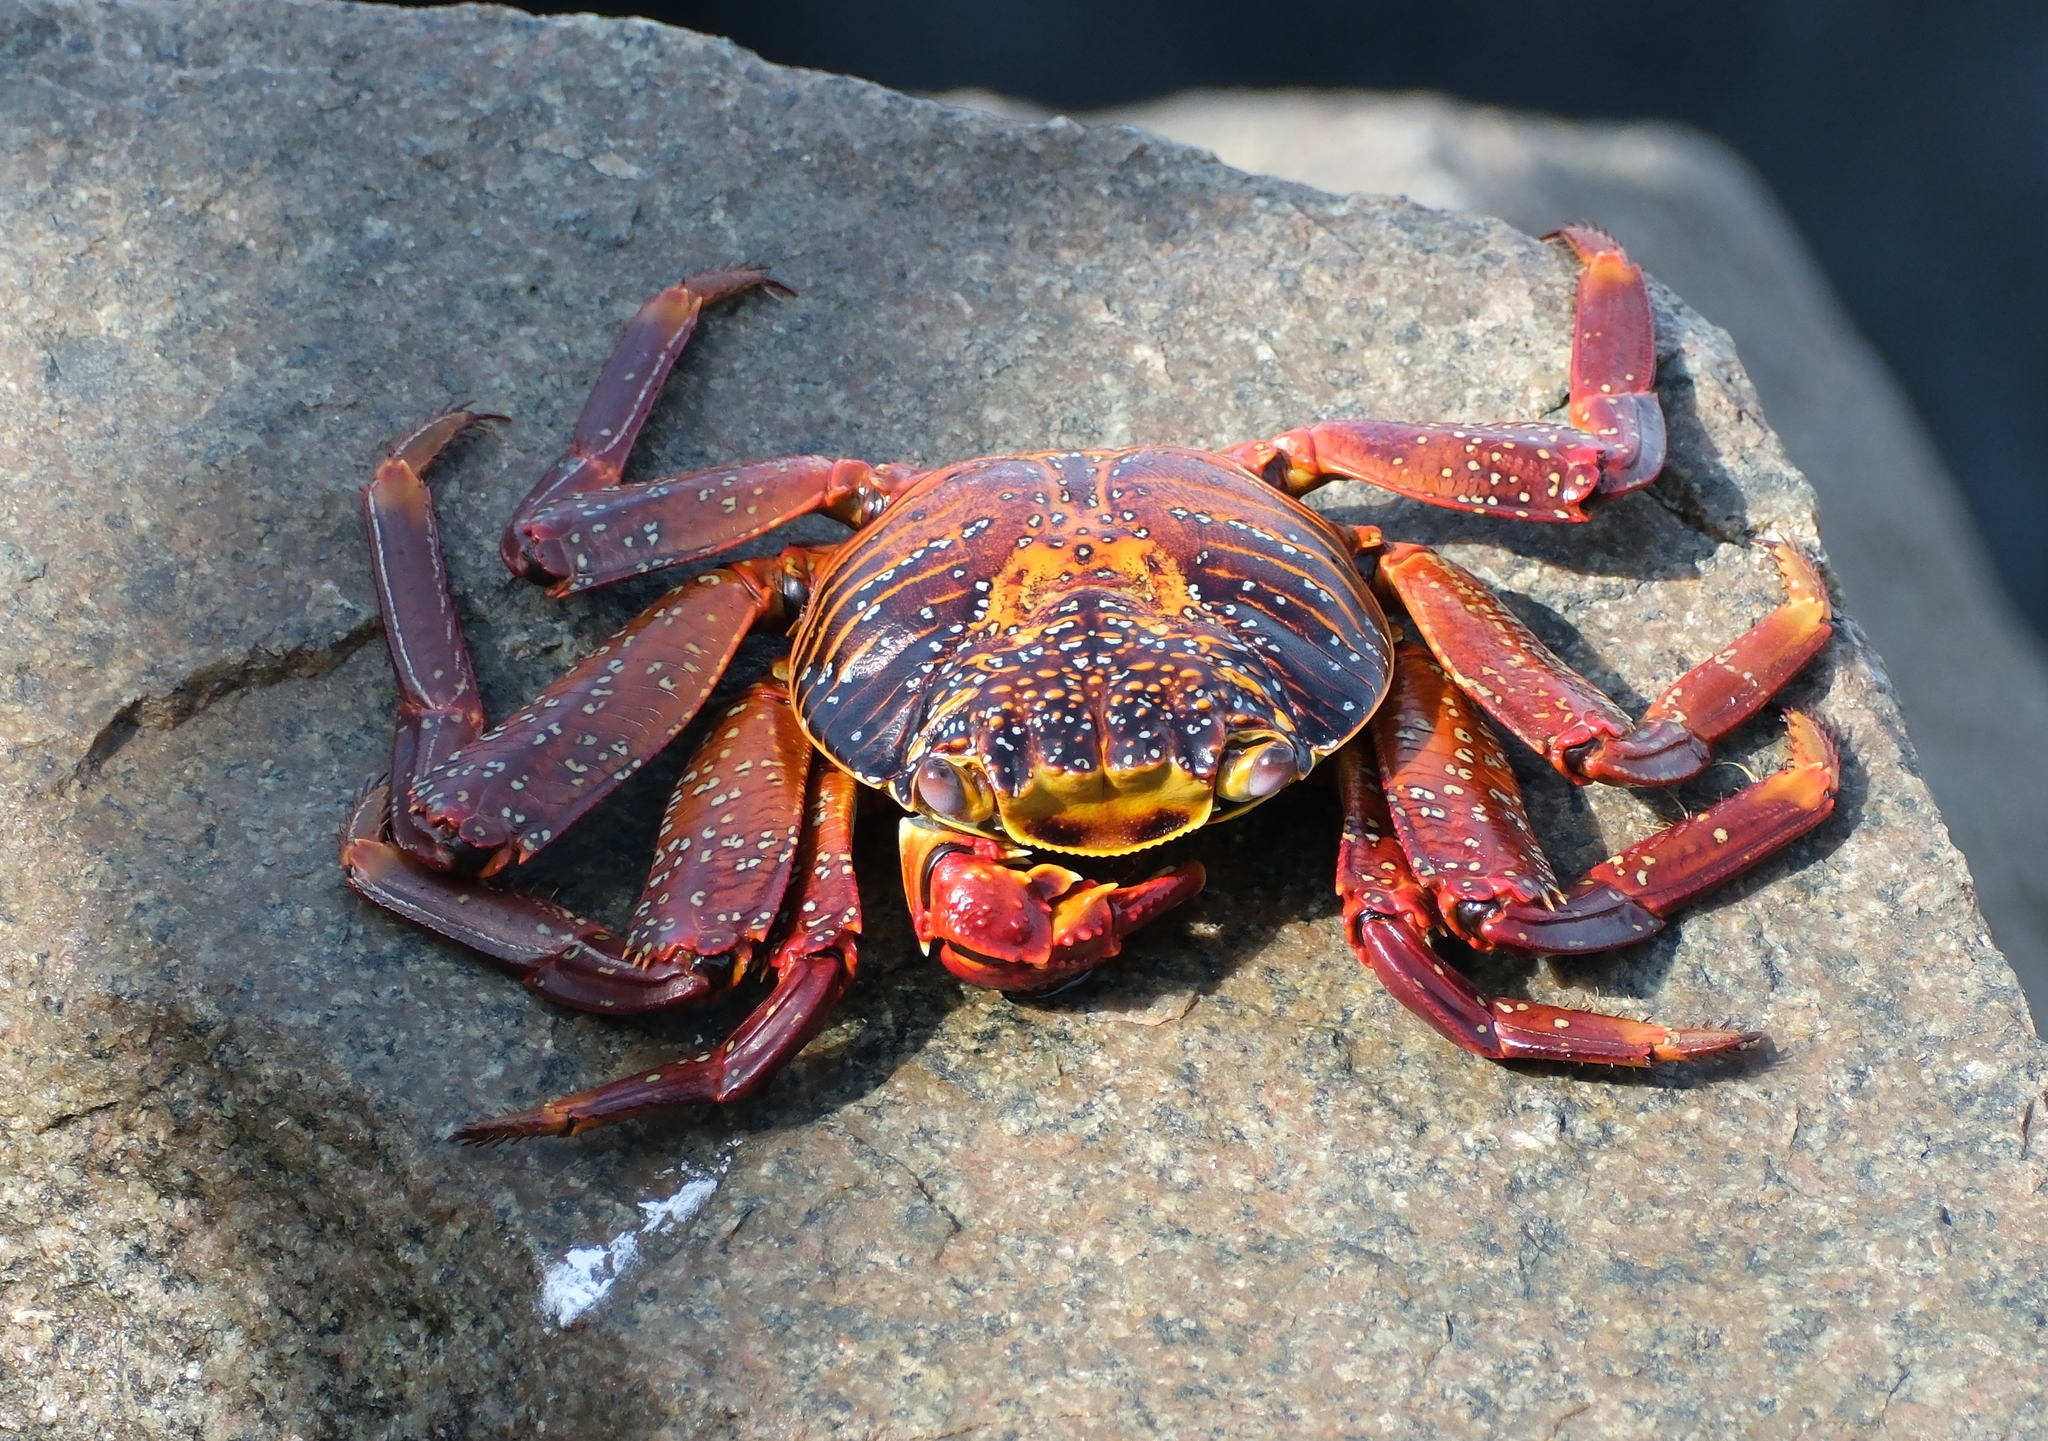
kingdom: Animalia
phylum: Arthropoda
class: Malacostraca
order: Decapoda
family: Grapsidae
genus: Grapsus
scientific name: Grapsus grapsus
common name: Sally lightfoot
